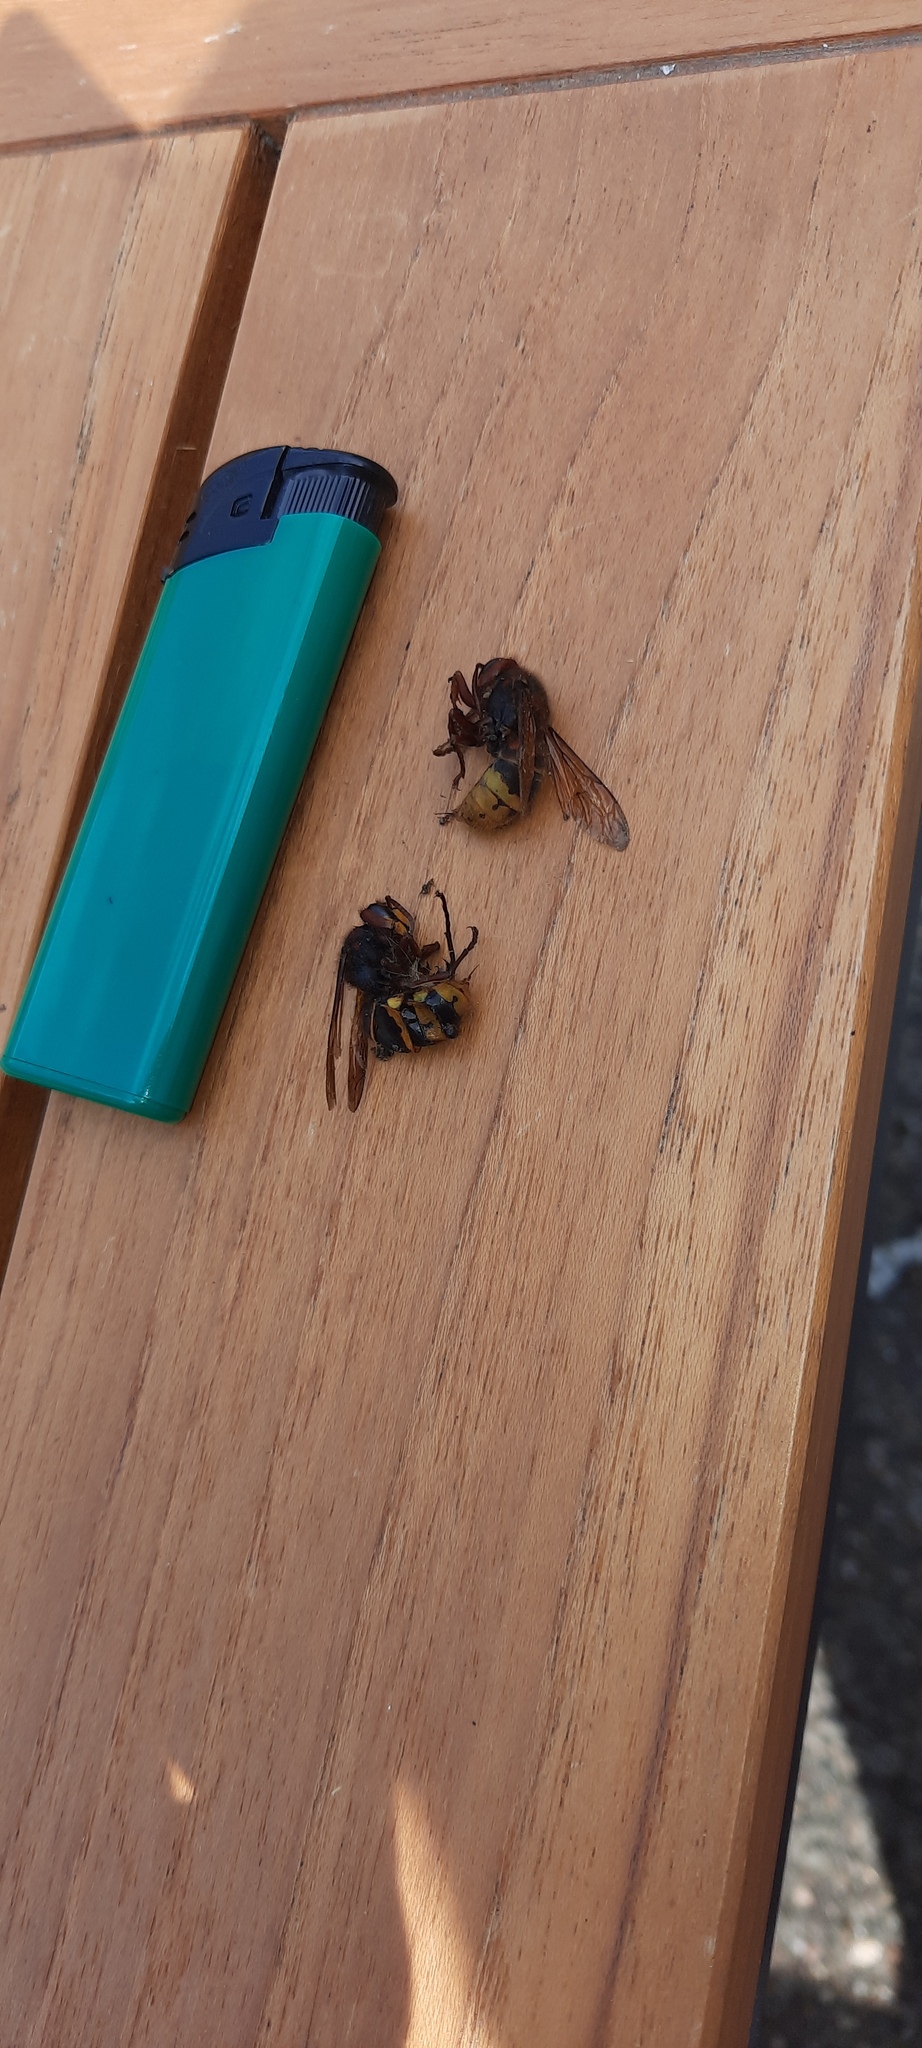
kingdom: Animalia
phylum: Arthropoda
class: Insecta
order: Hymenoptera
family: Vespidae
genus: Vespa
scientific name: Vespa crabro
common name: Hornet
